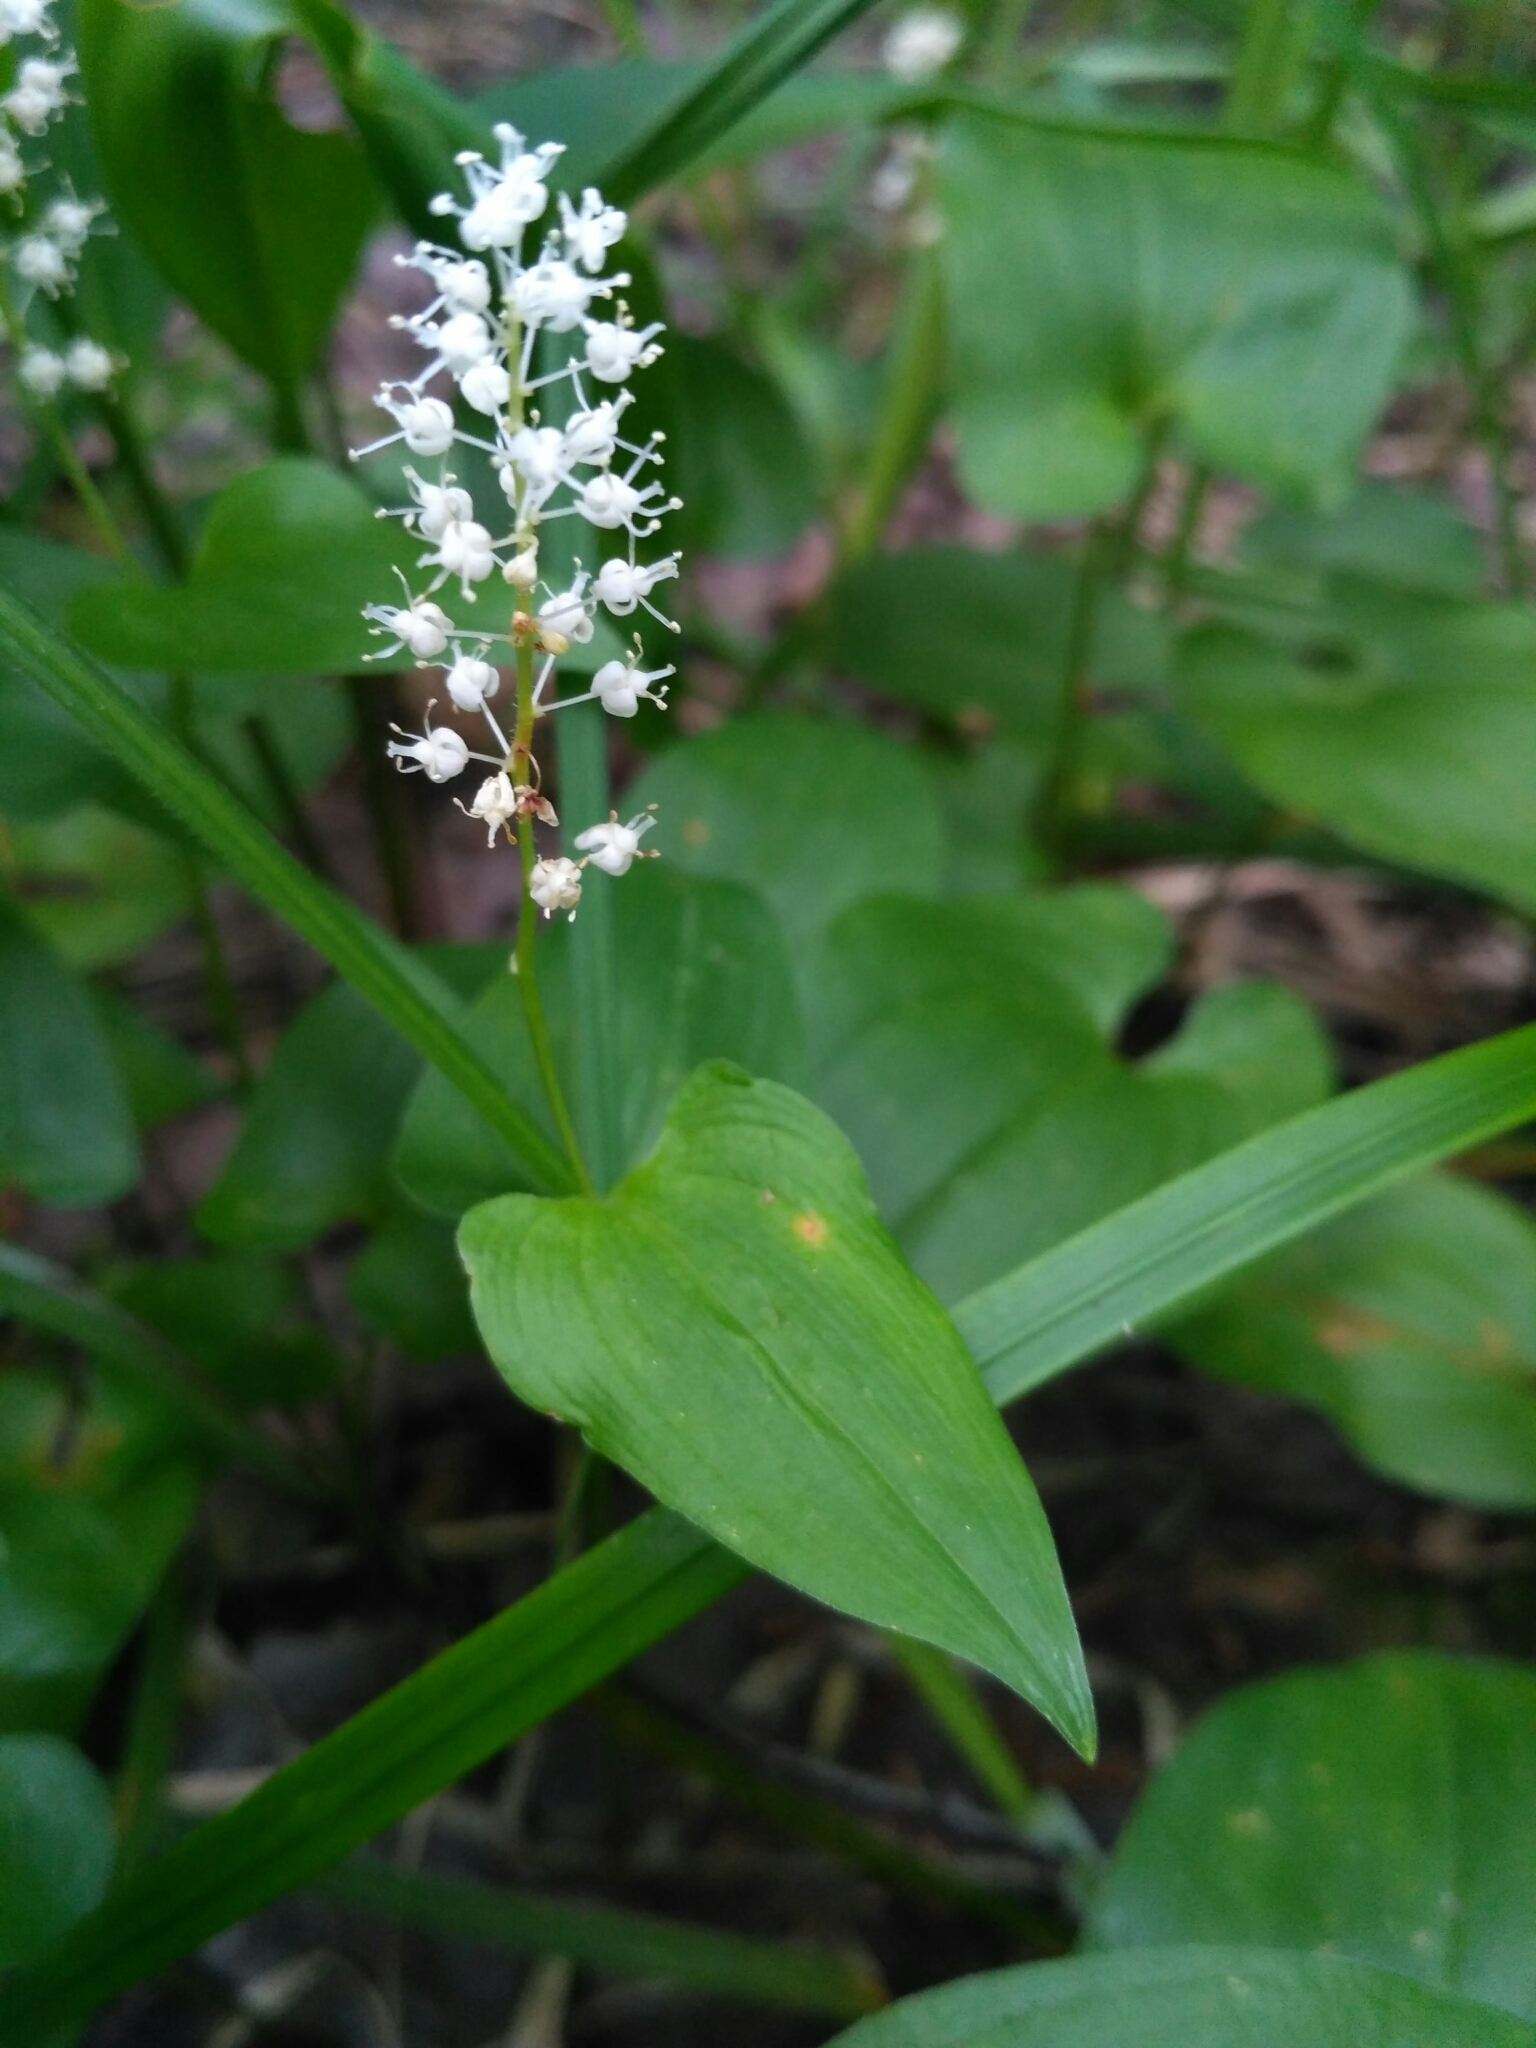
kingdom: Plantae
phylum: Tracheophyta
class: Liliopsida
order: Asparagales
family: Asparagaceae
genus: Maianthemum
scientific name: Maianthemum bifolium
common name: May lily
